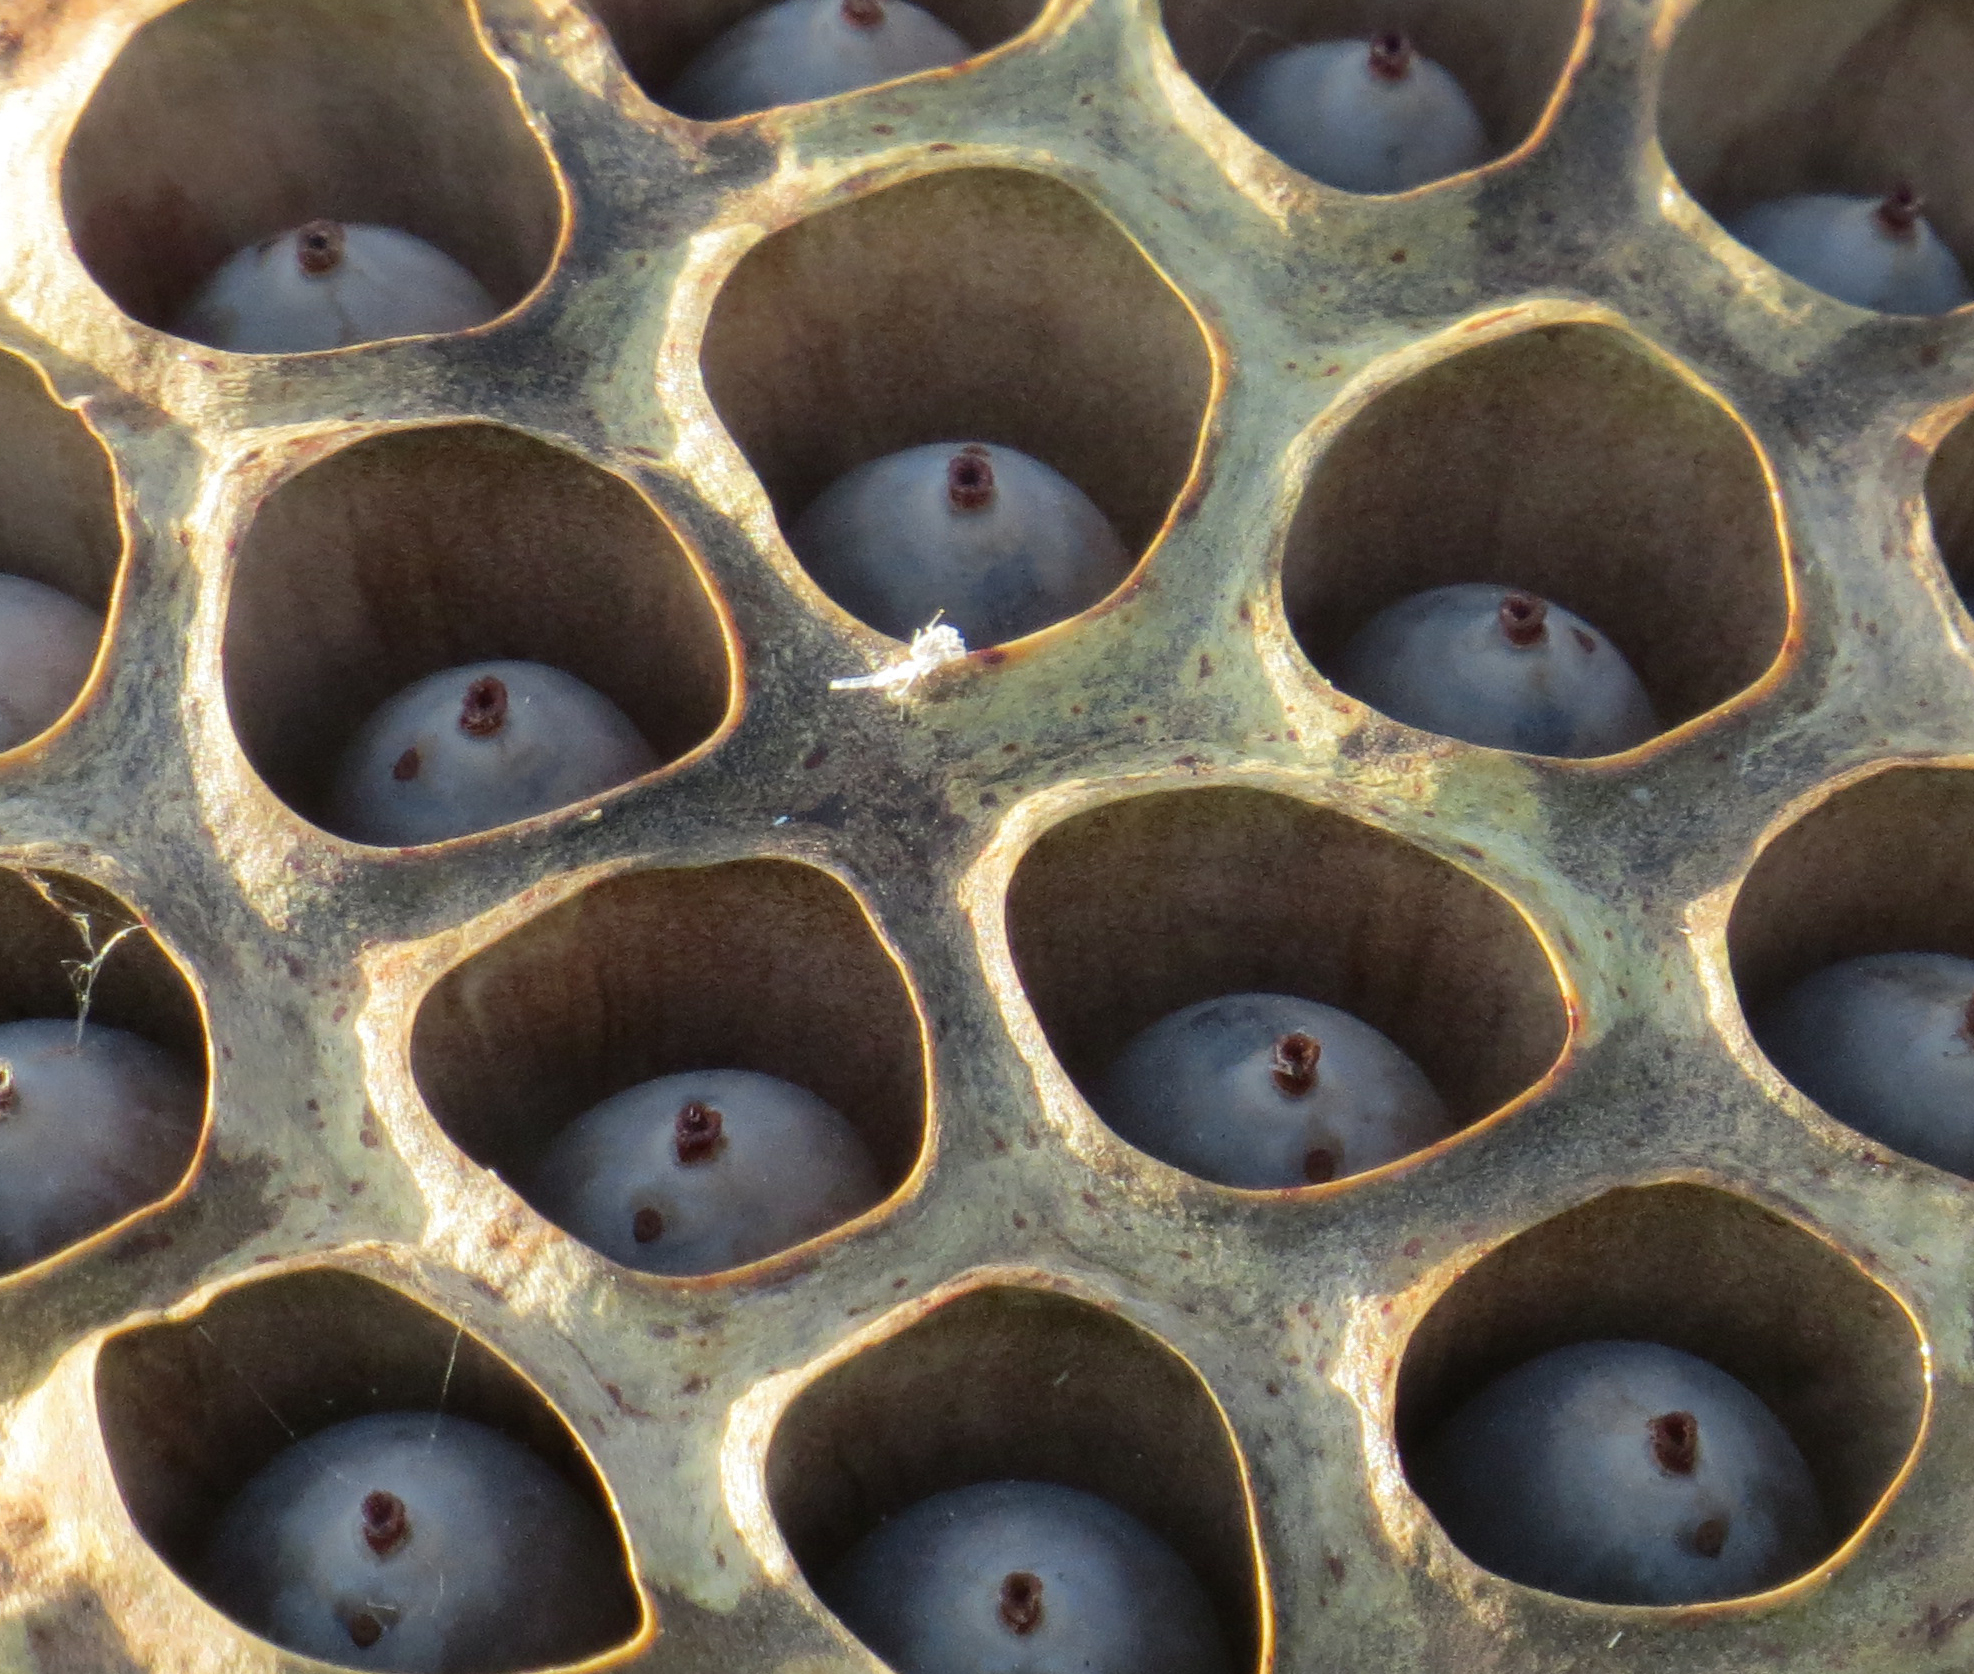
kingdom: Plantae
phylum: Tracheophyta
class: Magnoliopsida
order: Proteales
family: Nelumbonaceae
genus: Nelumbo
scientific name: Nelumbo lutea
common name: American lotus
